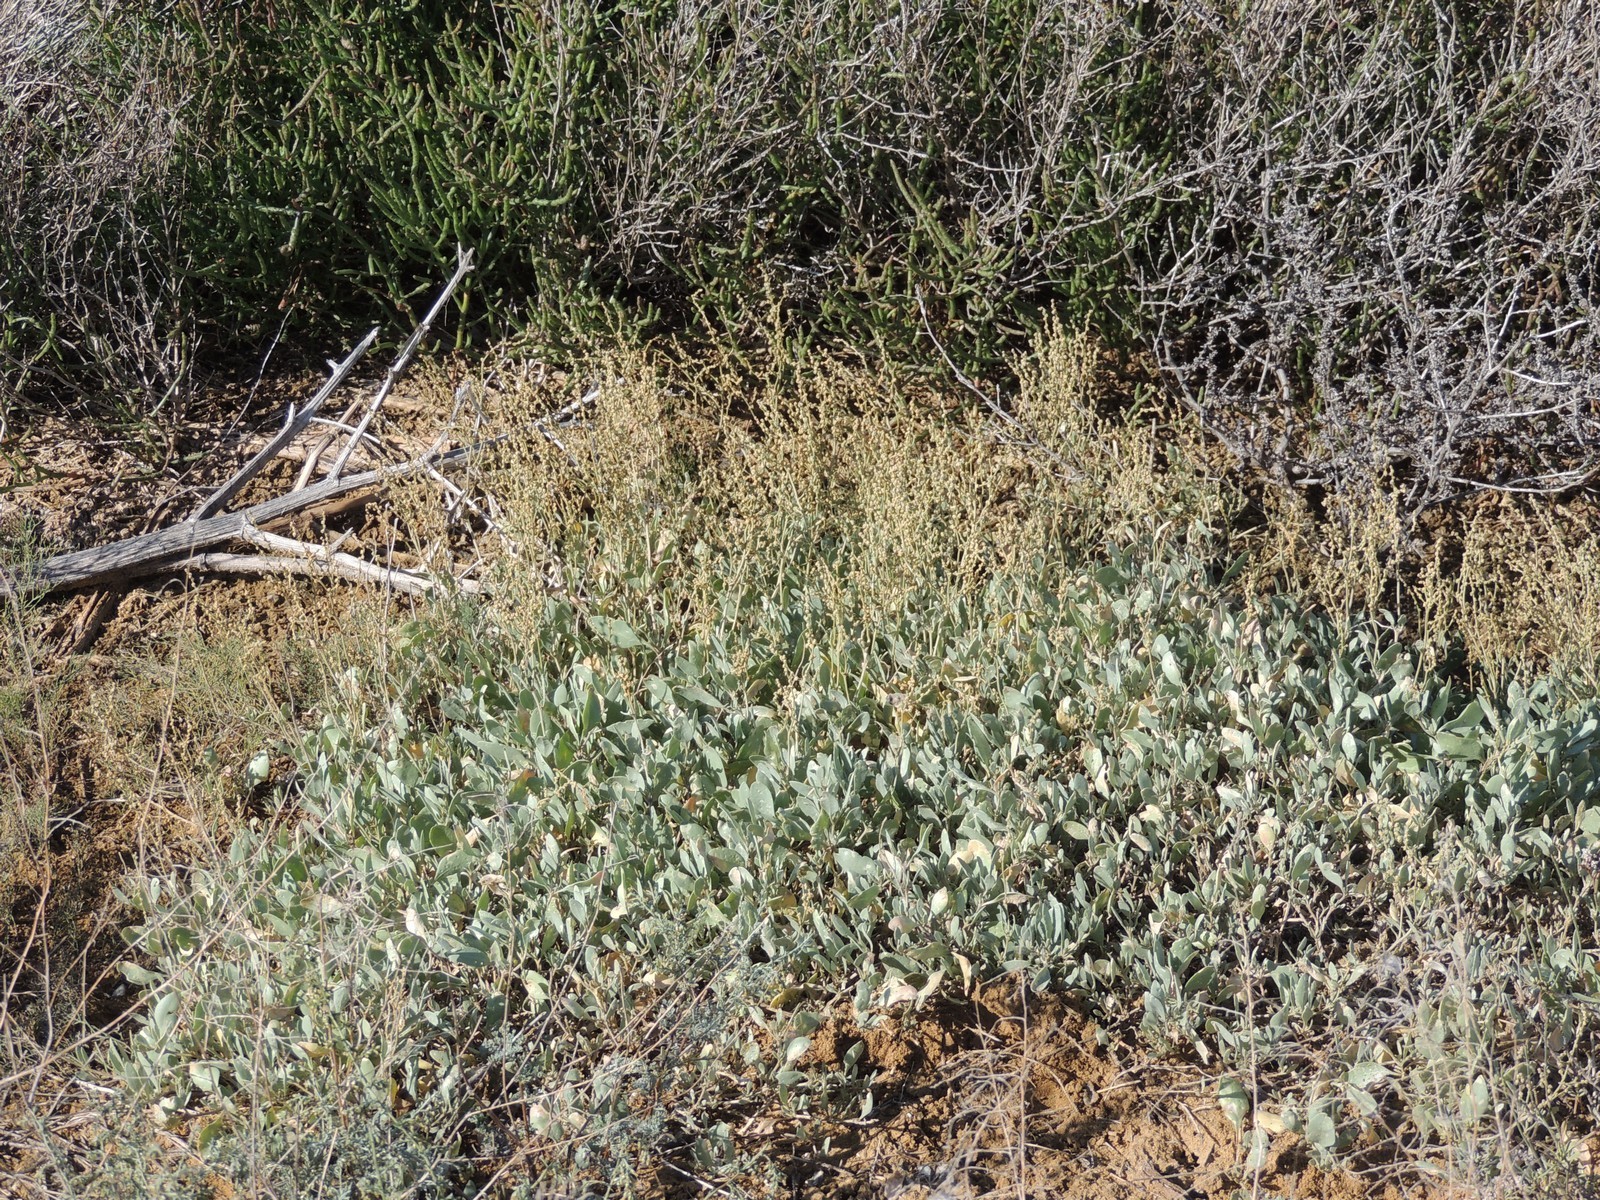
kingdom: Plantae
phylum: Tracheophyta
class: Magnoliopsida
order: Caryophyllales
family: Amaranthaceae
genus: Halimione
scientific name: Halimione verrucifera
